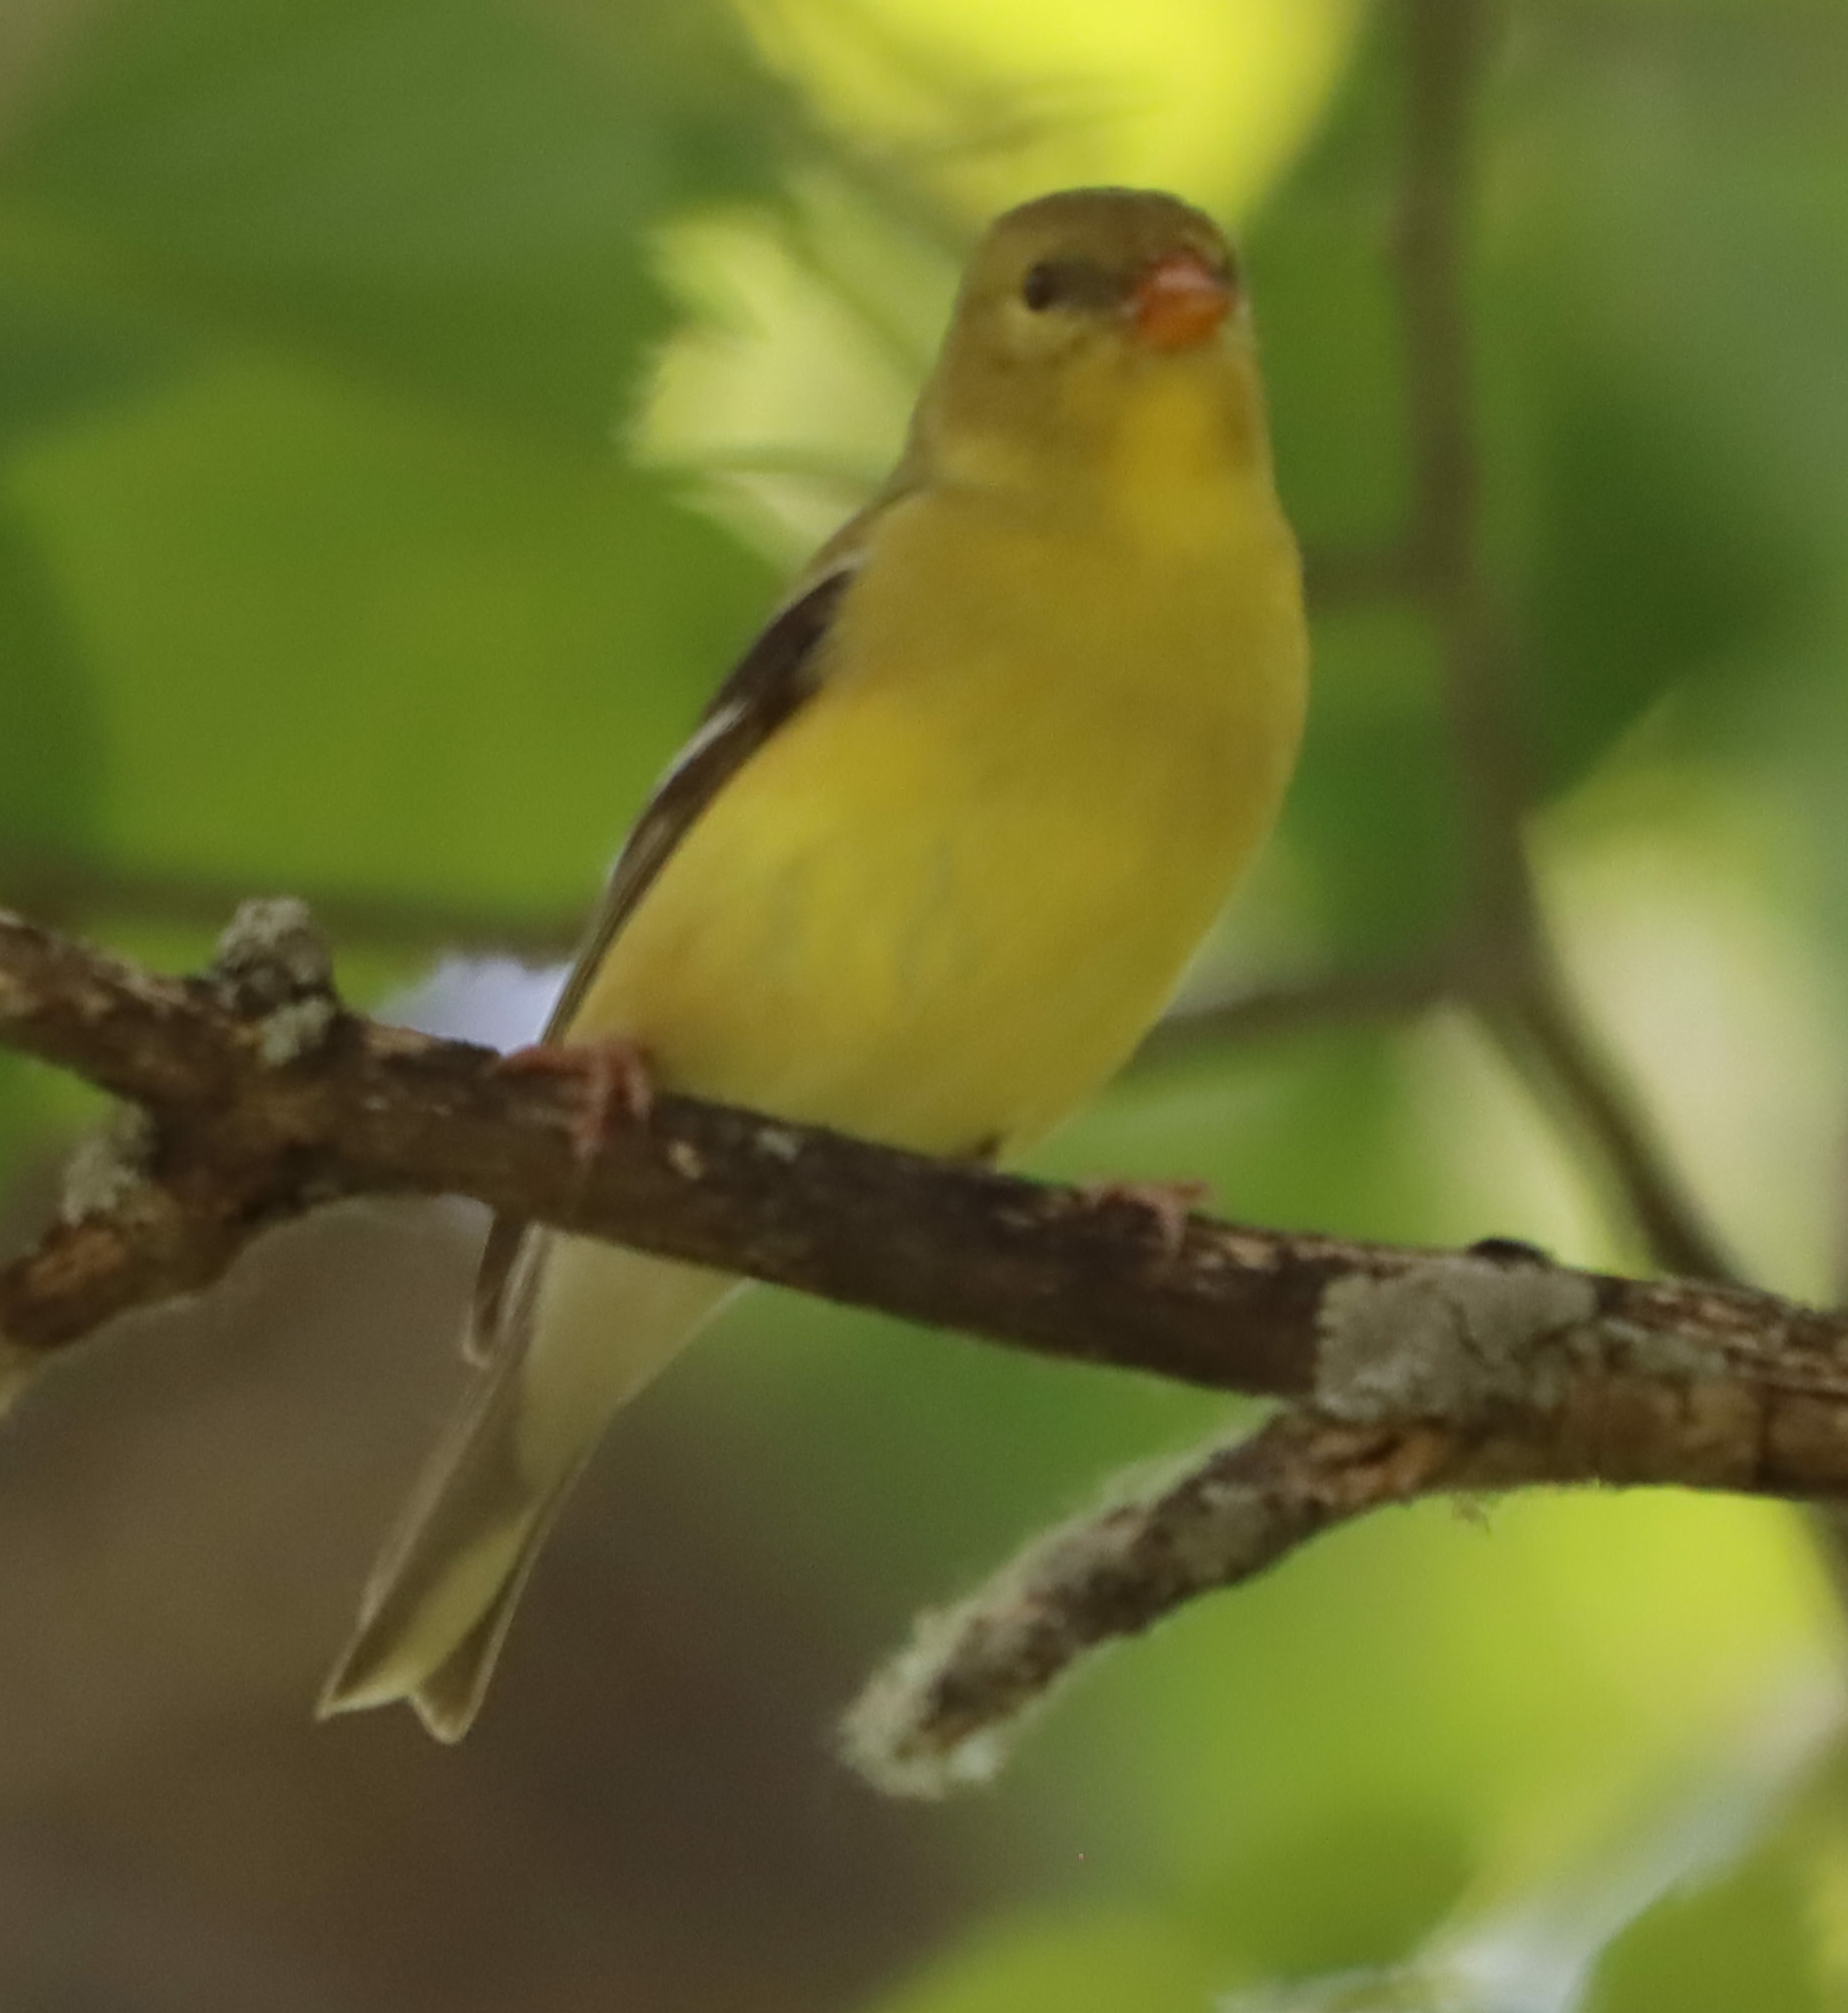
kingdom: Animalia
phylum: Chordata
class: Aves
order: Passeriformes
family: Fringillidae
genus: Spinus
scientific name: Spinus tristis
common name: American goldfinch
